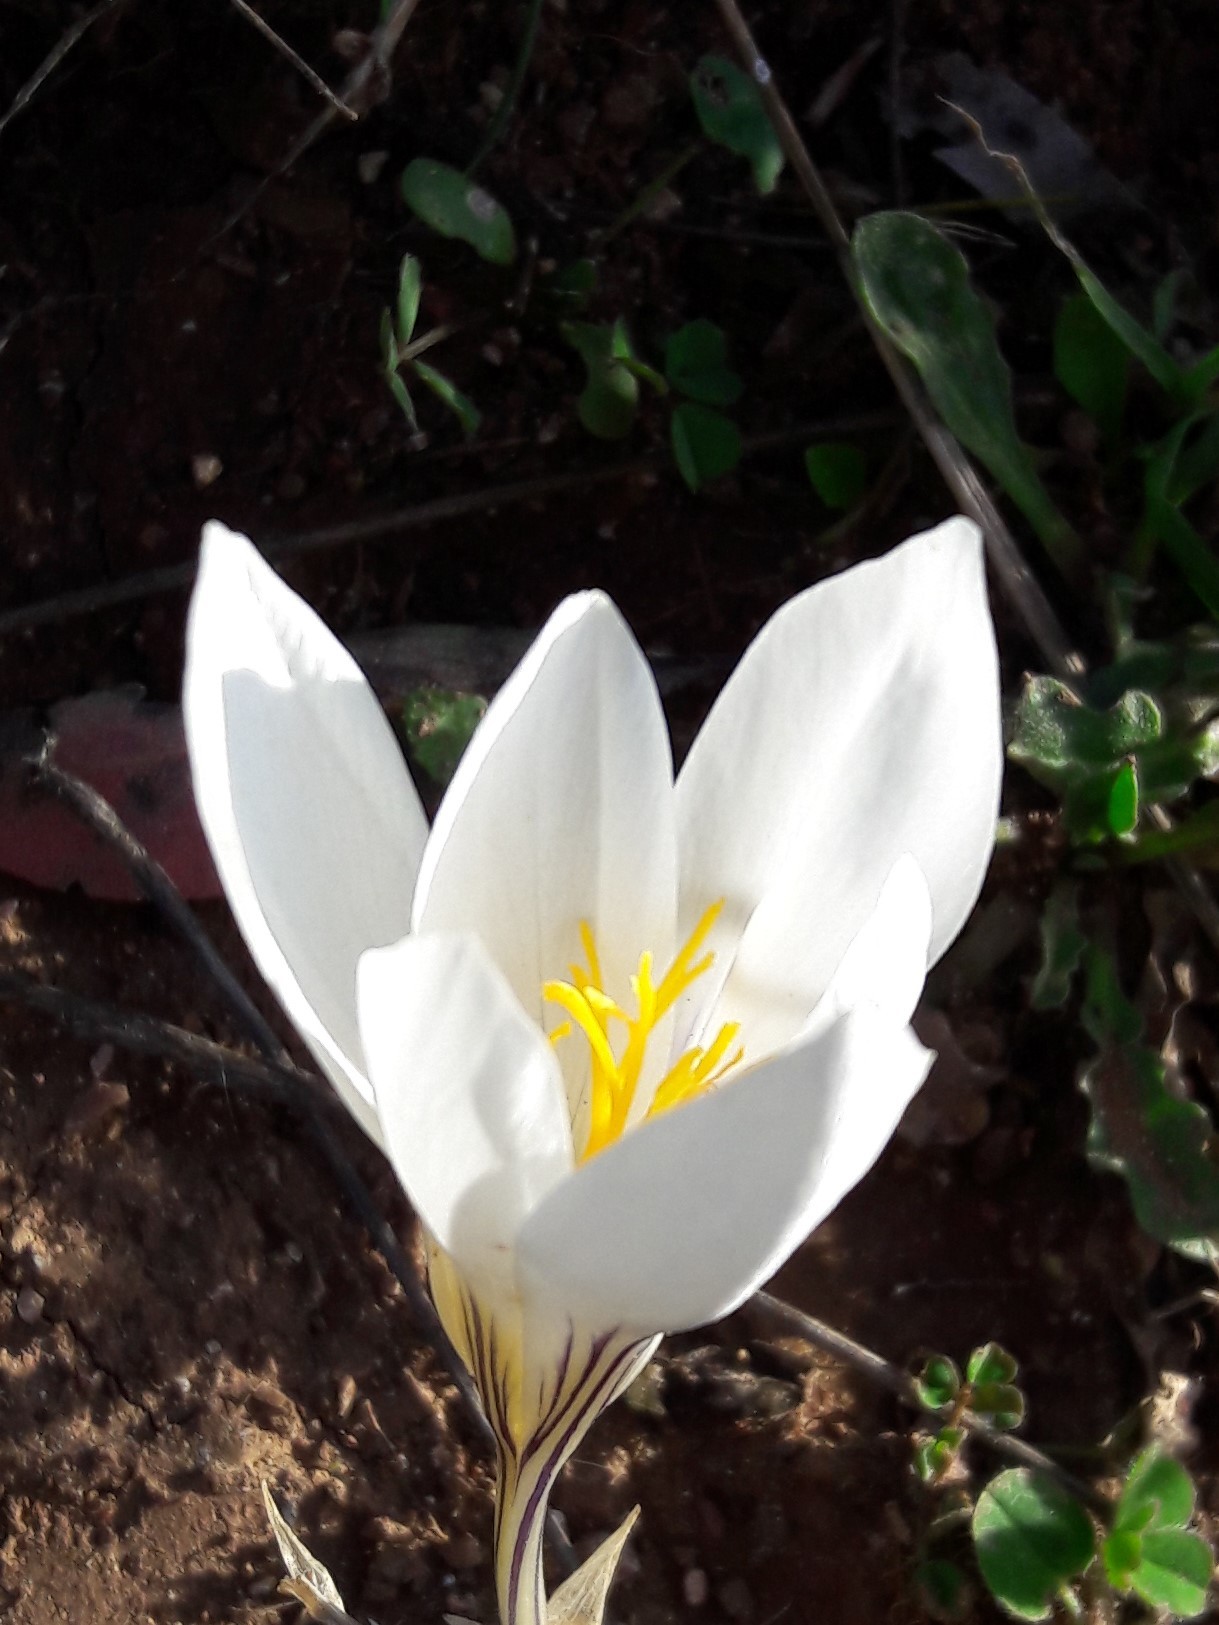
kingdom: Plantae
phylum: Tracheophyta
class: Liliopsida
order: Asparagales
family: Iridaceae
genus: Crocus
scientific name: Crocus mazziaricus
